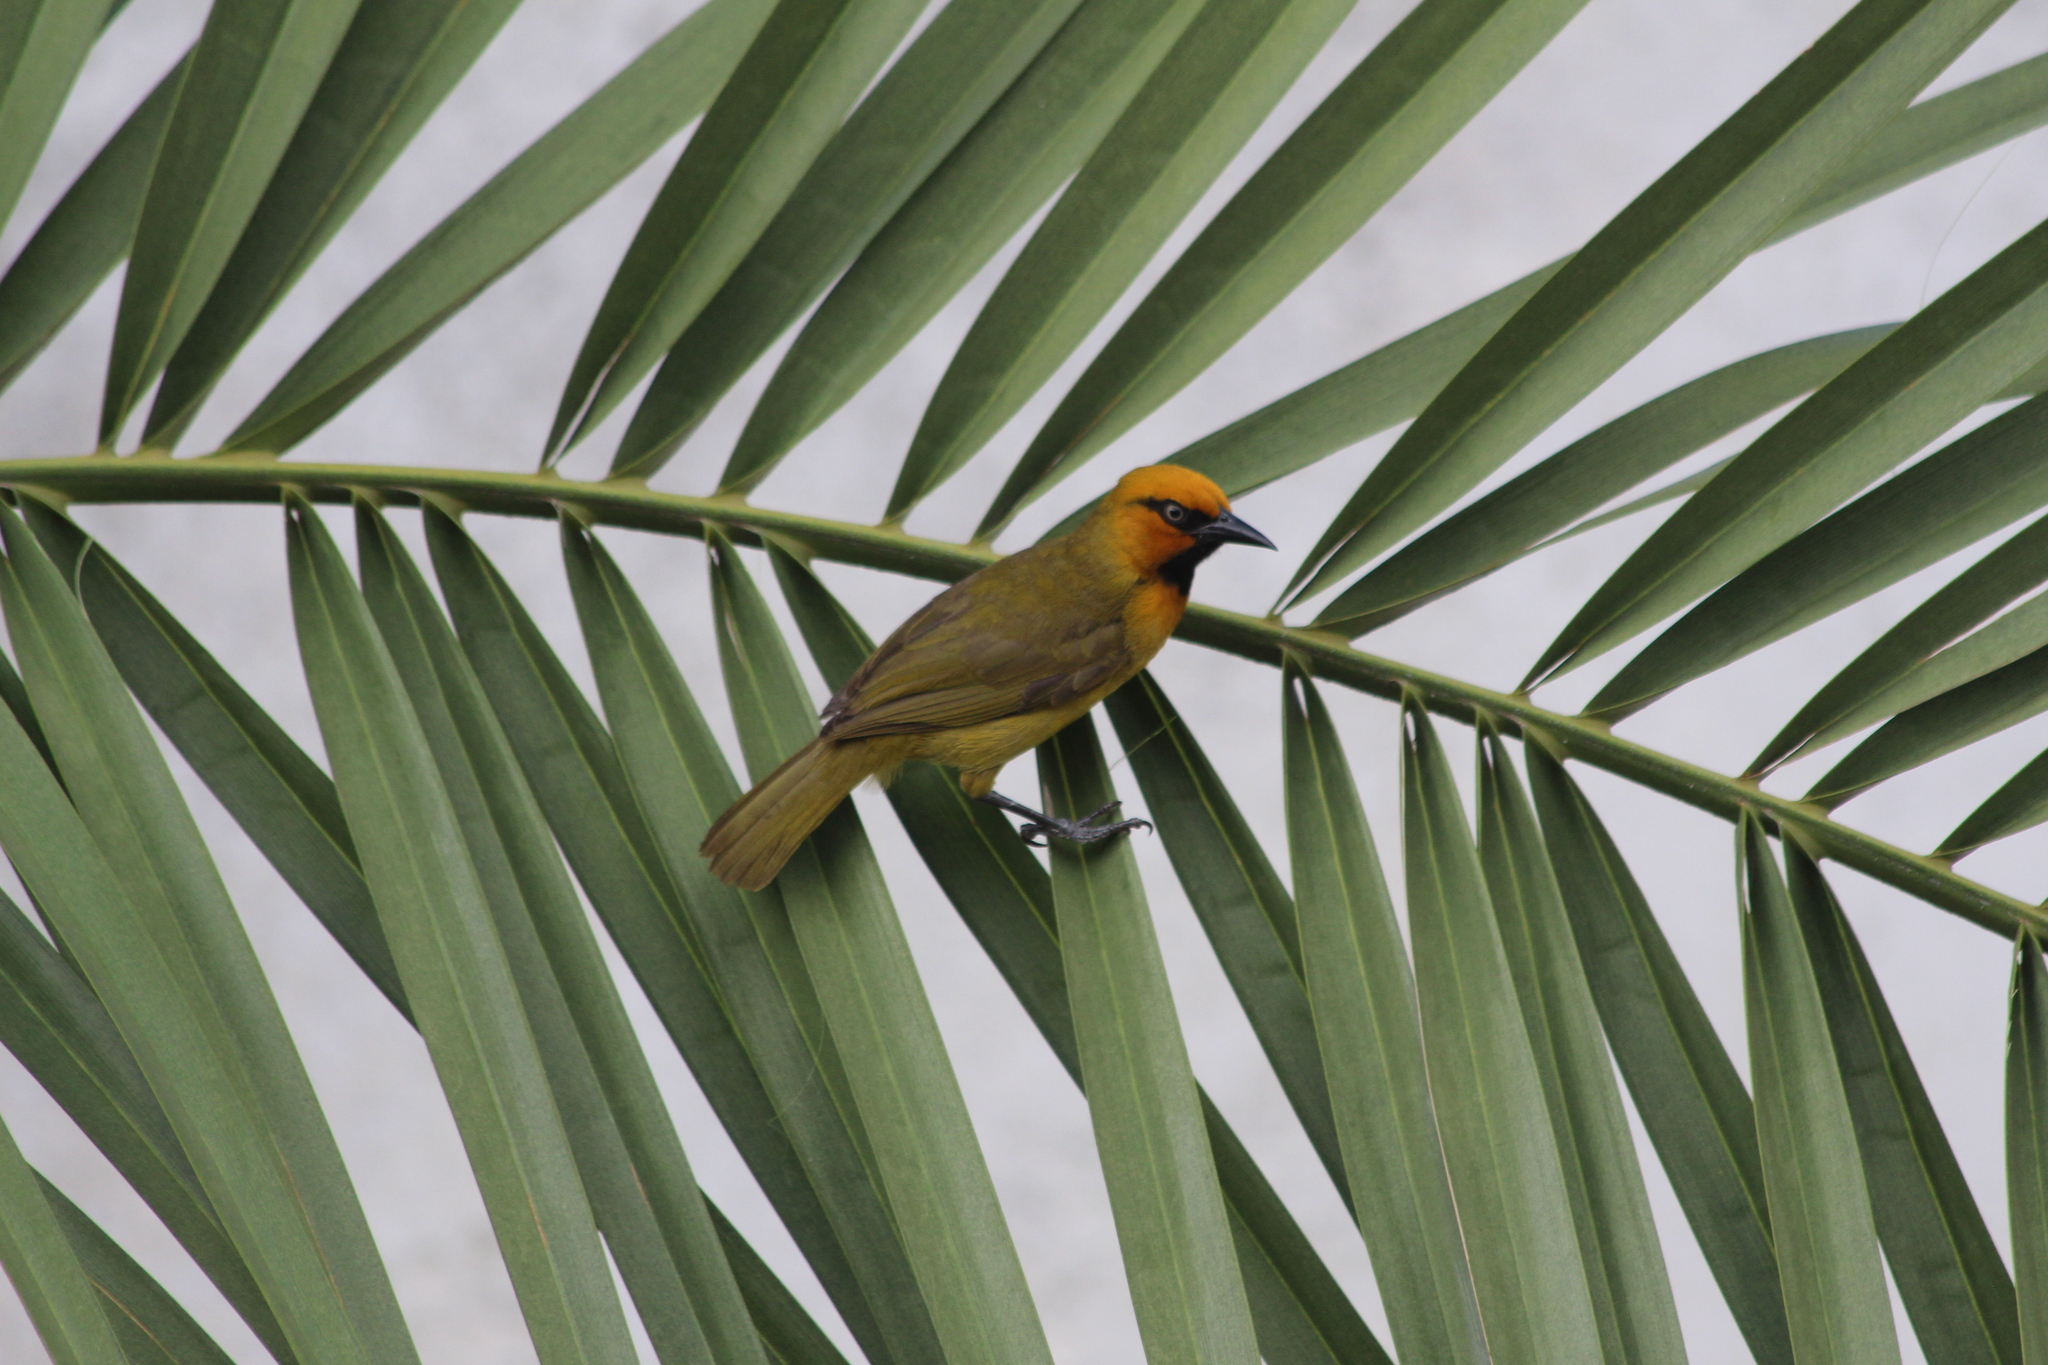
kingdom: Animalia
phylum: Chordata
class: Aves
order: Passeriformes
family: Ploceidae
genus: Ploceus
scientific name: Ploceus ocularis
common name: Spectacled weaver
